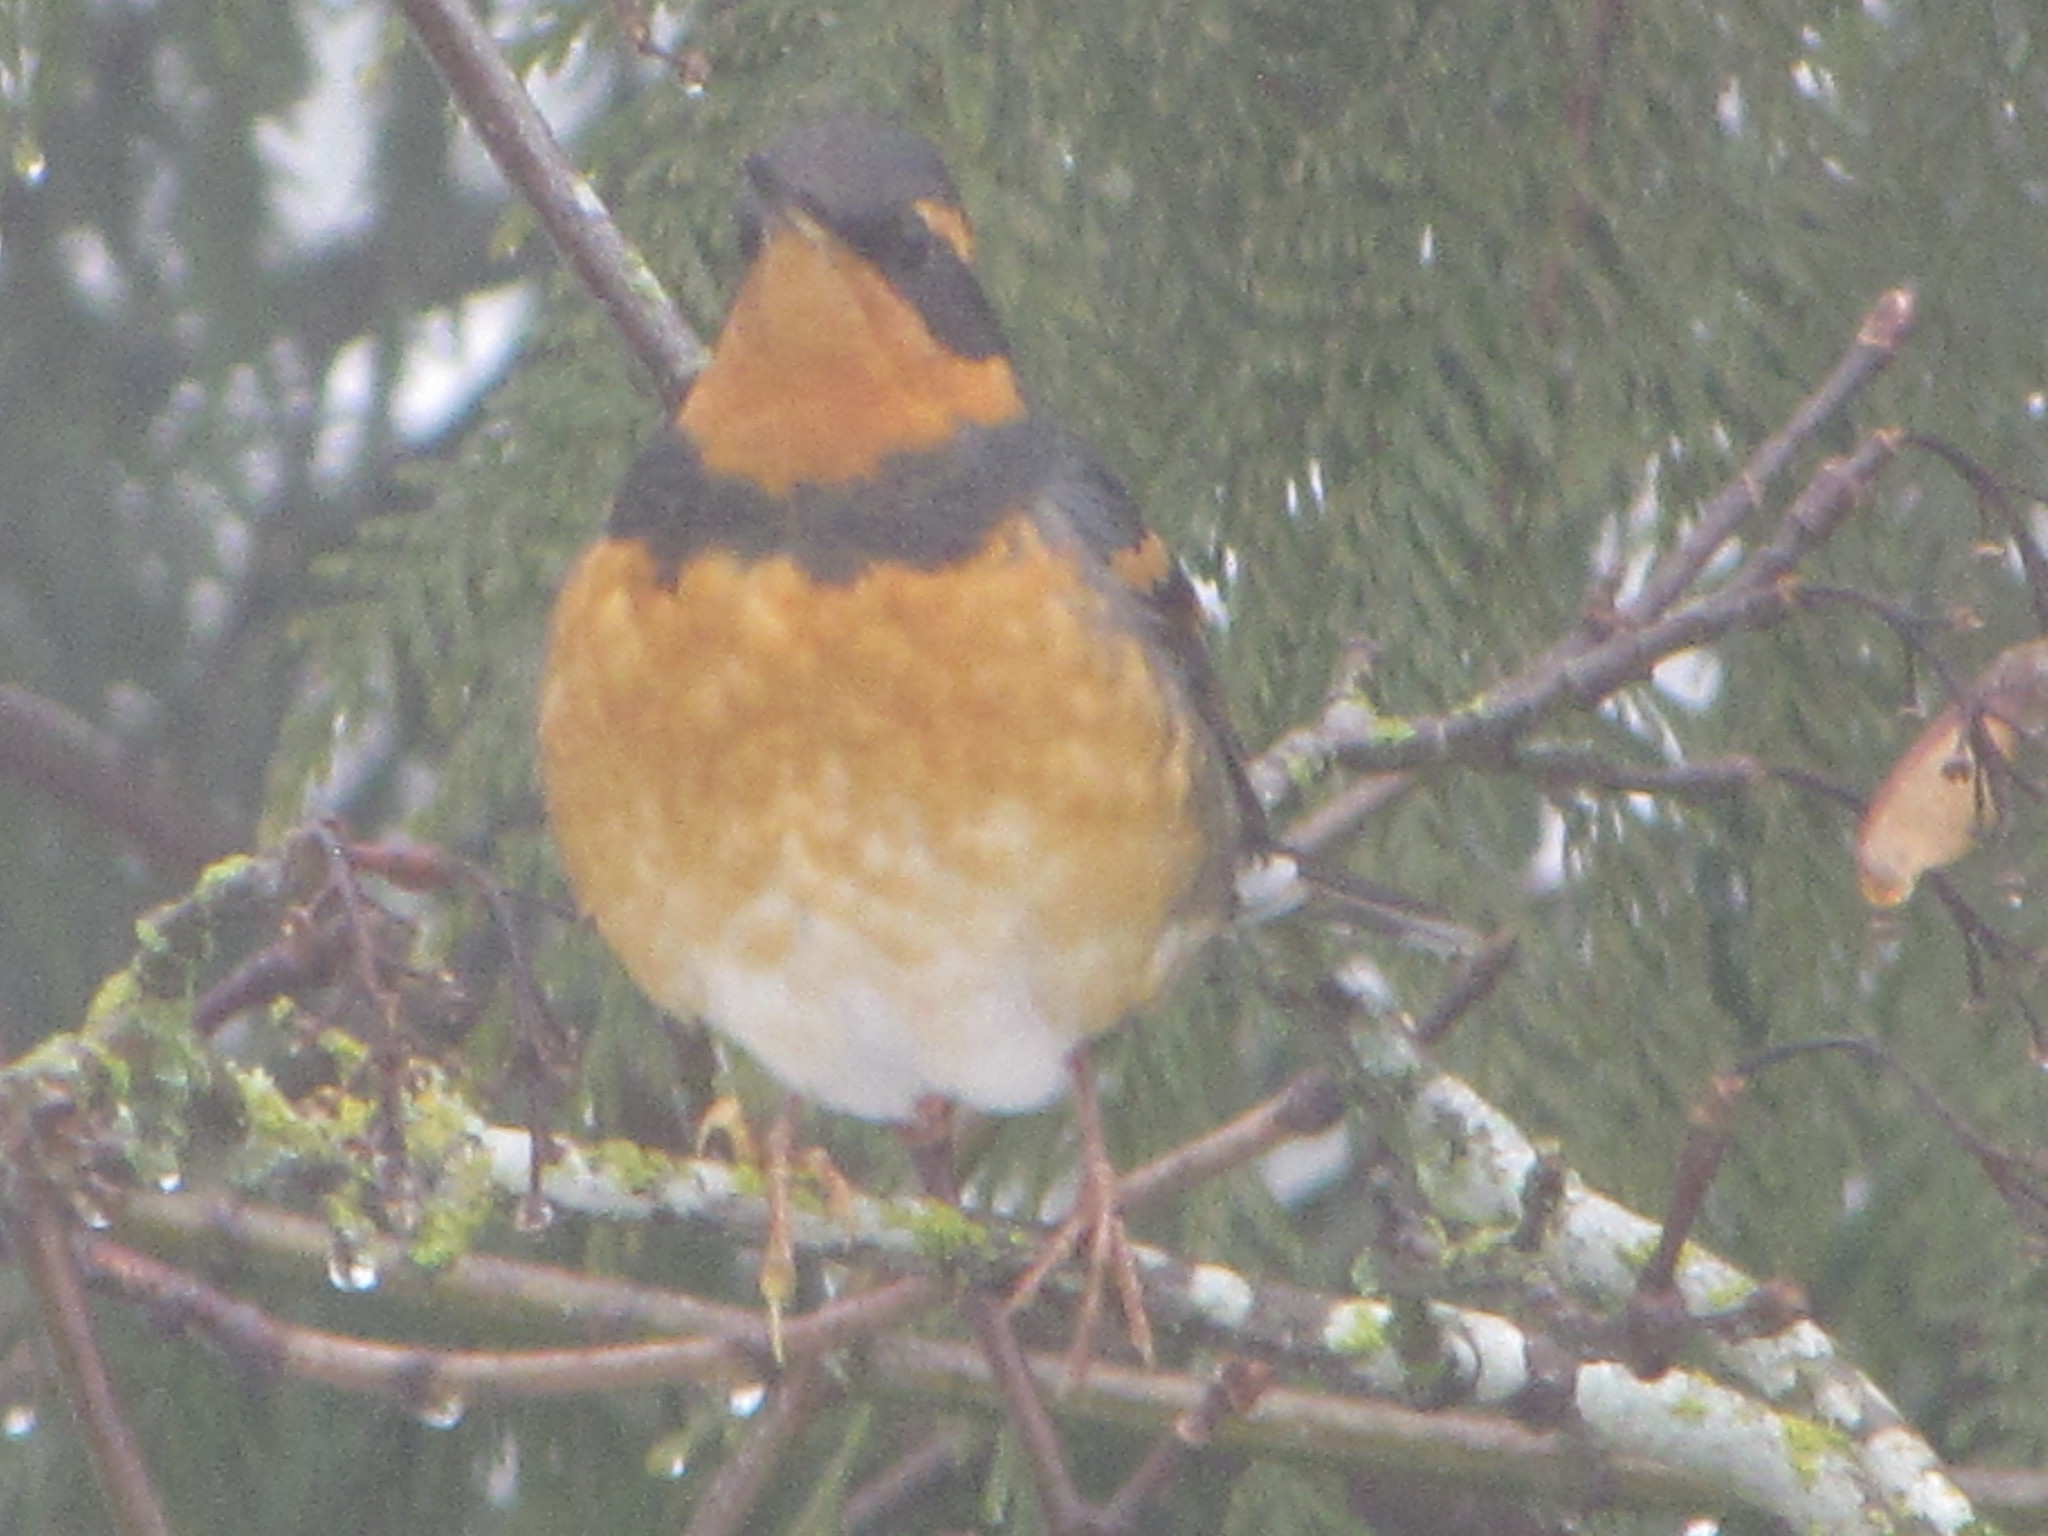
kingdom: Animalia
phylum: Chordata
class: Aves
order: Passeriformes
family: Turdidae
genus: Ixoreus
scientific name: Ixoreus naevius
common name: Varied thrush
